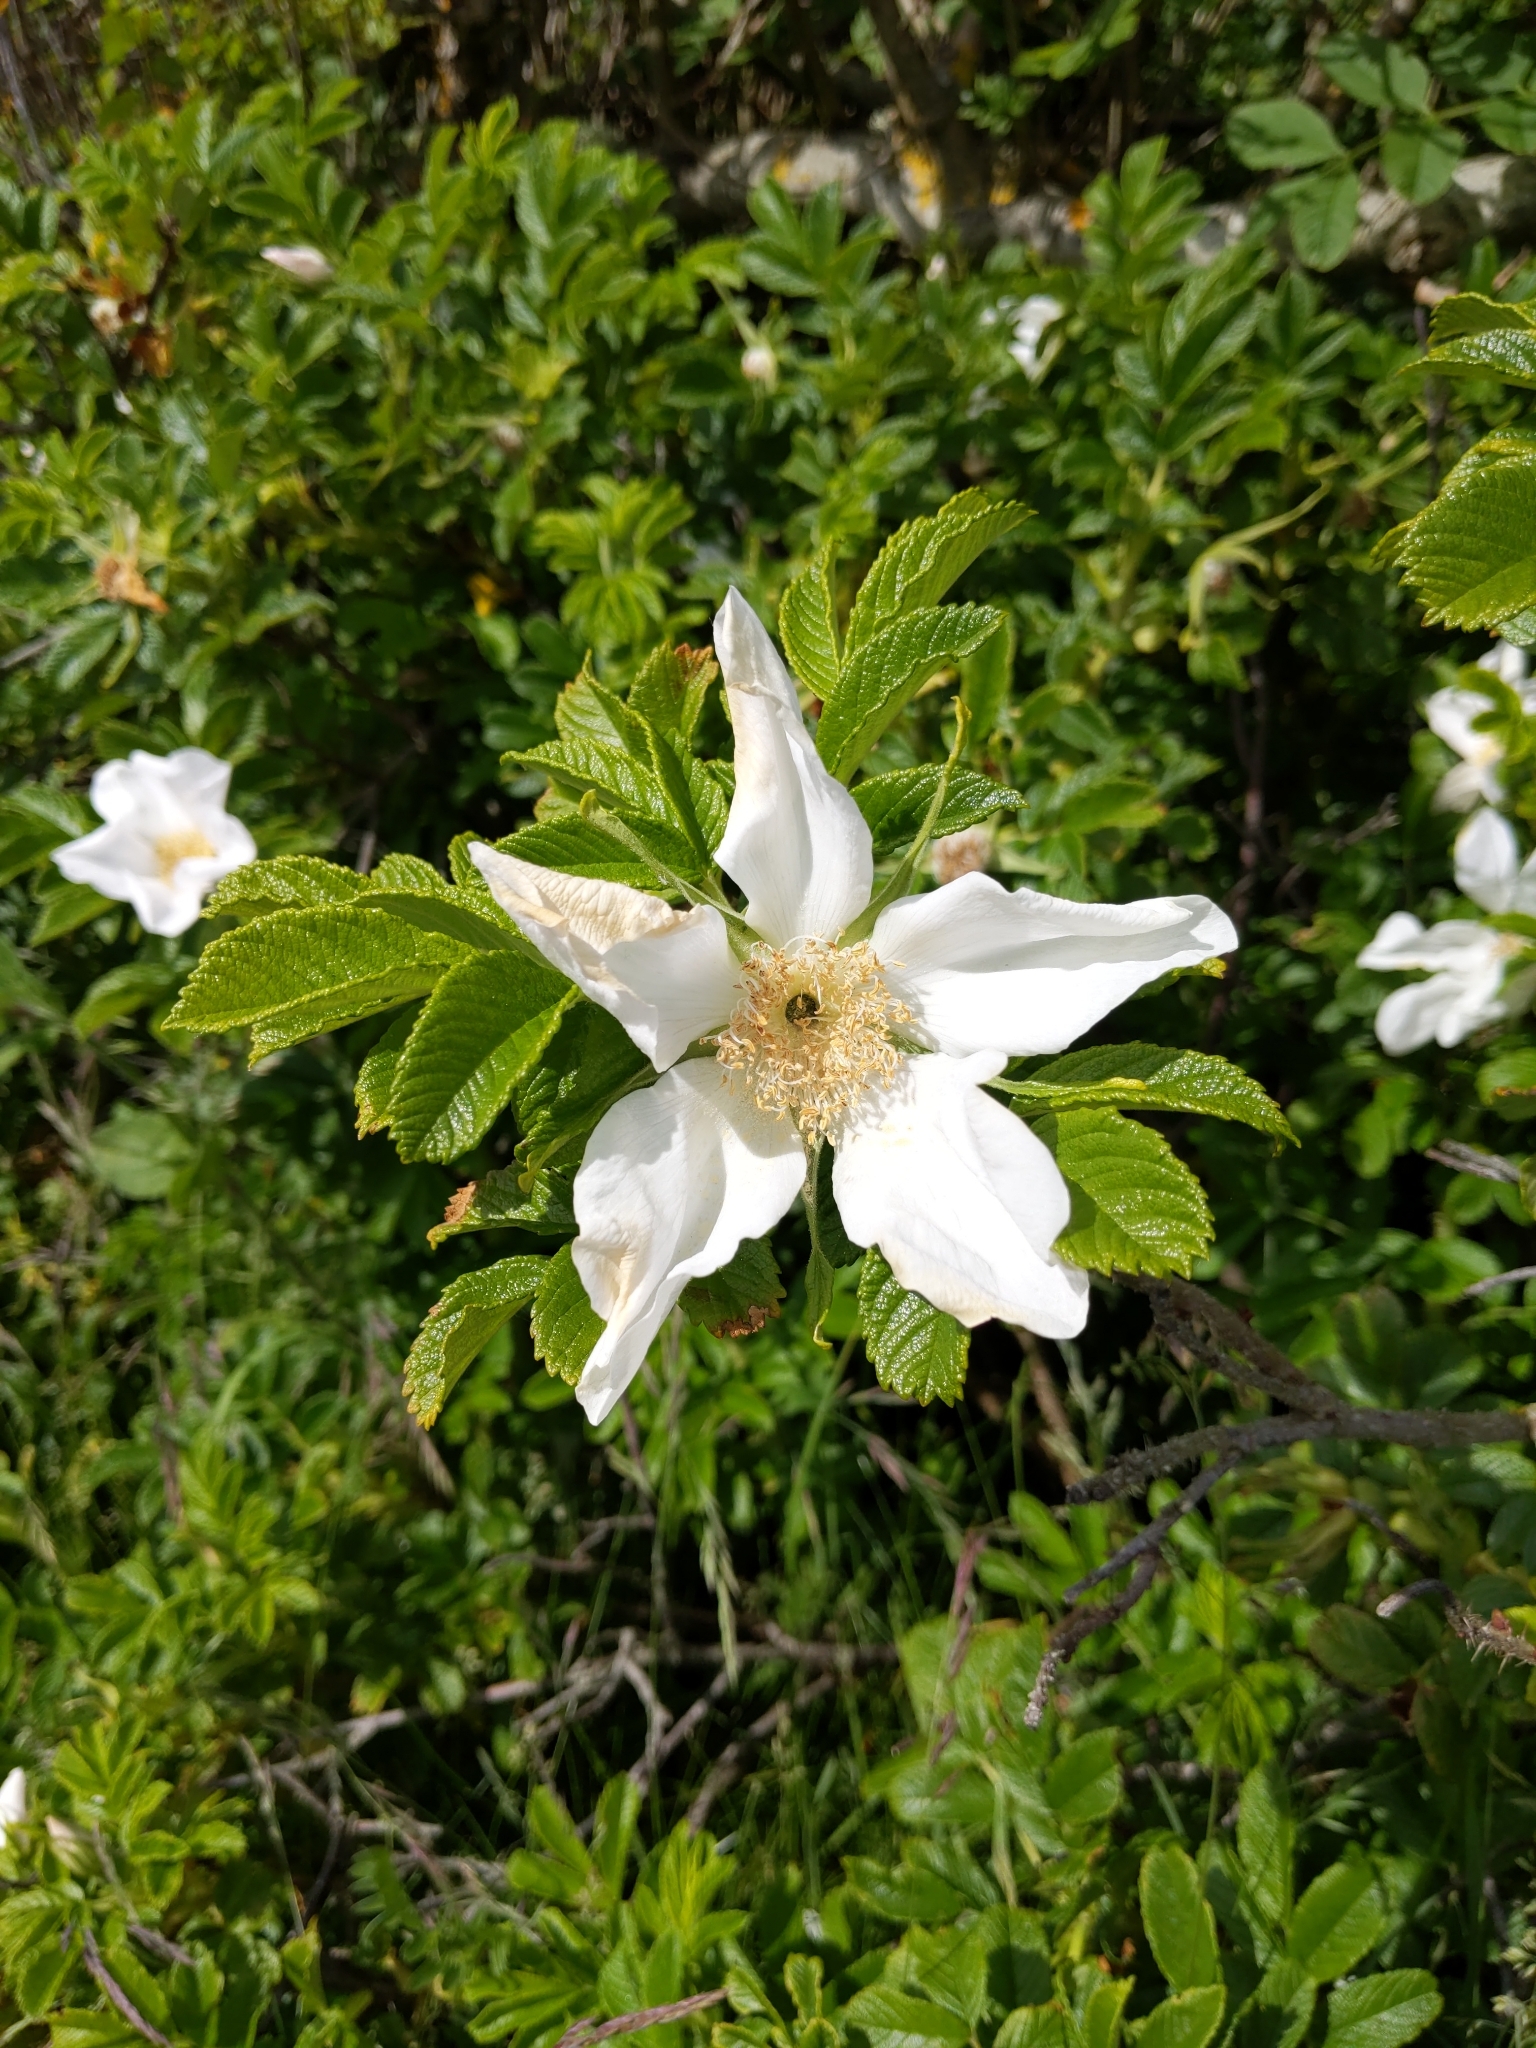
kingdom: Plantae
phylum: Tracheophyta
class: Magnoliopsida
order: Rosales
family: Rosaceae
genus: Rosa
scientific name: Rosa rugosa
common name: Japanese rose
